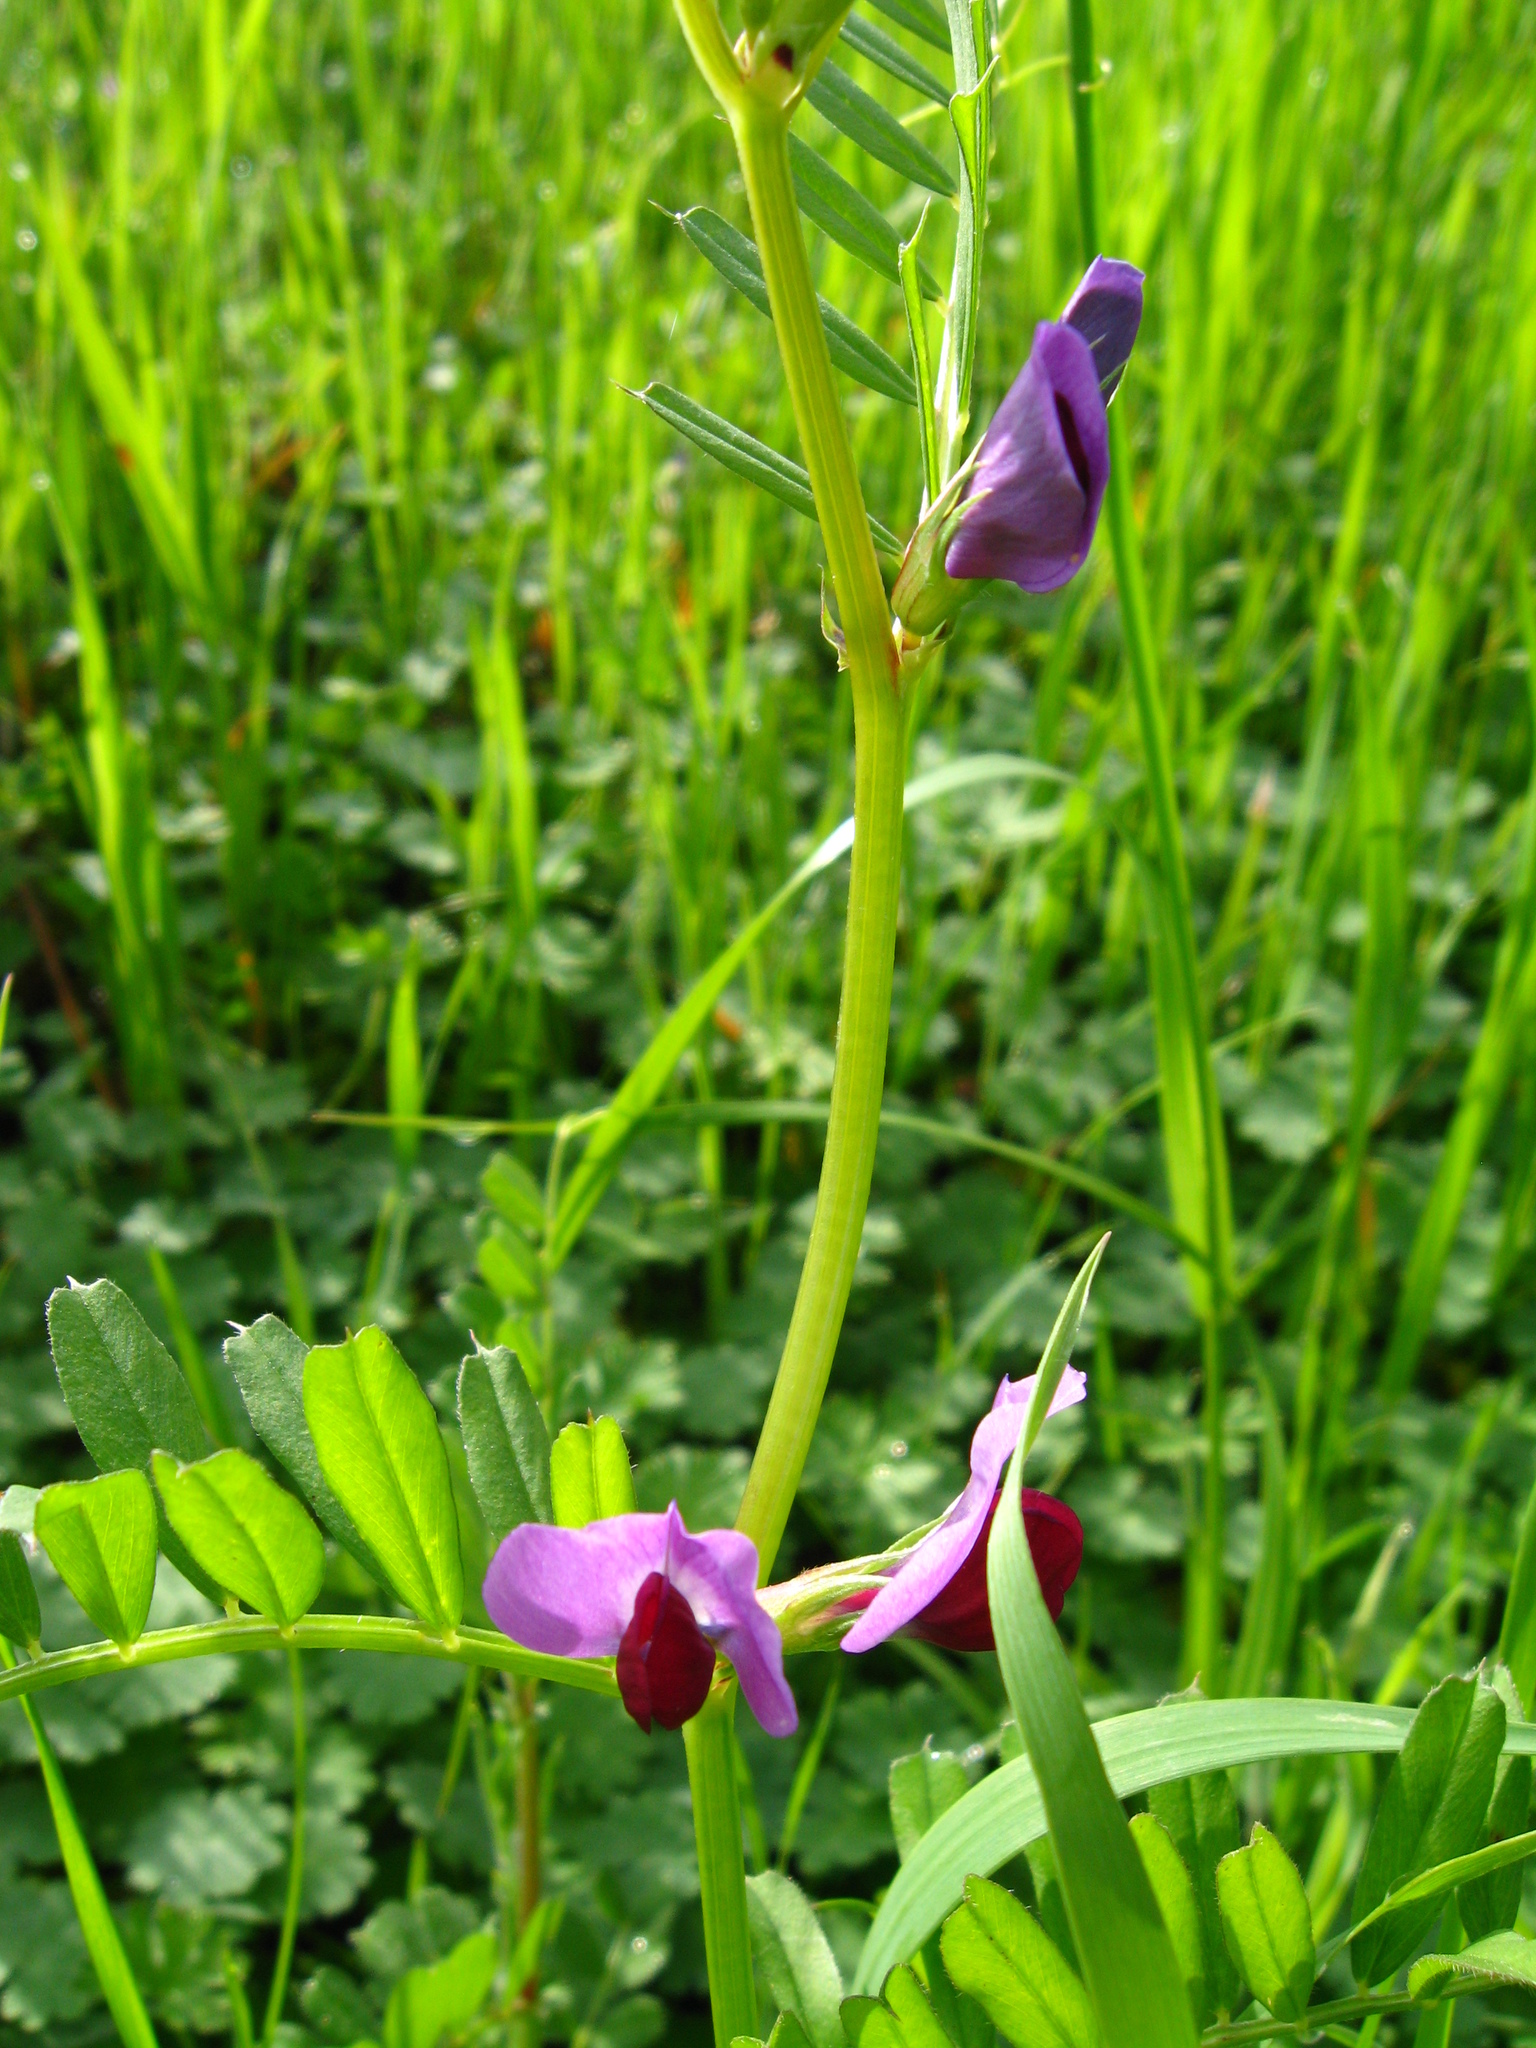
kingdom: Plantae
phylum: Tracheophyta
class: Magnoliopsida
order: Fabales
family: Fabaceae
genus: Vicia
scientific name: Vicia sativa
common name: Garden vetch
